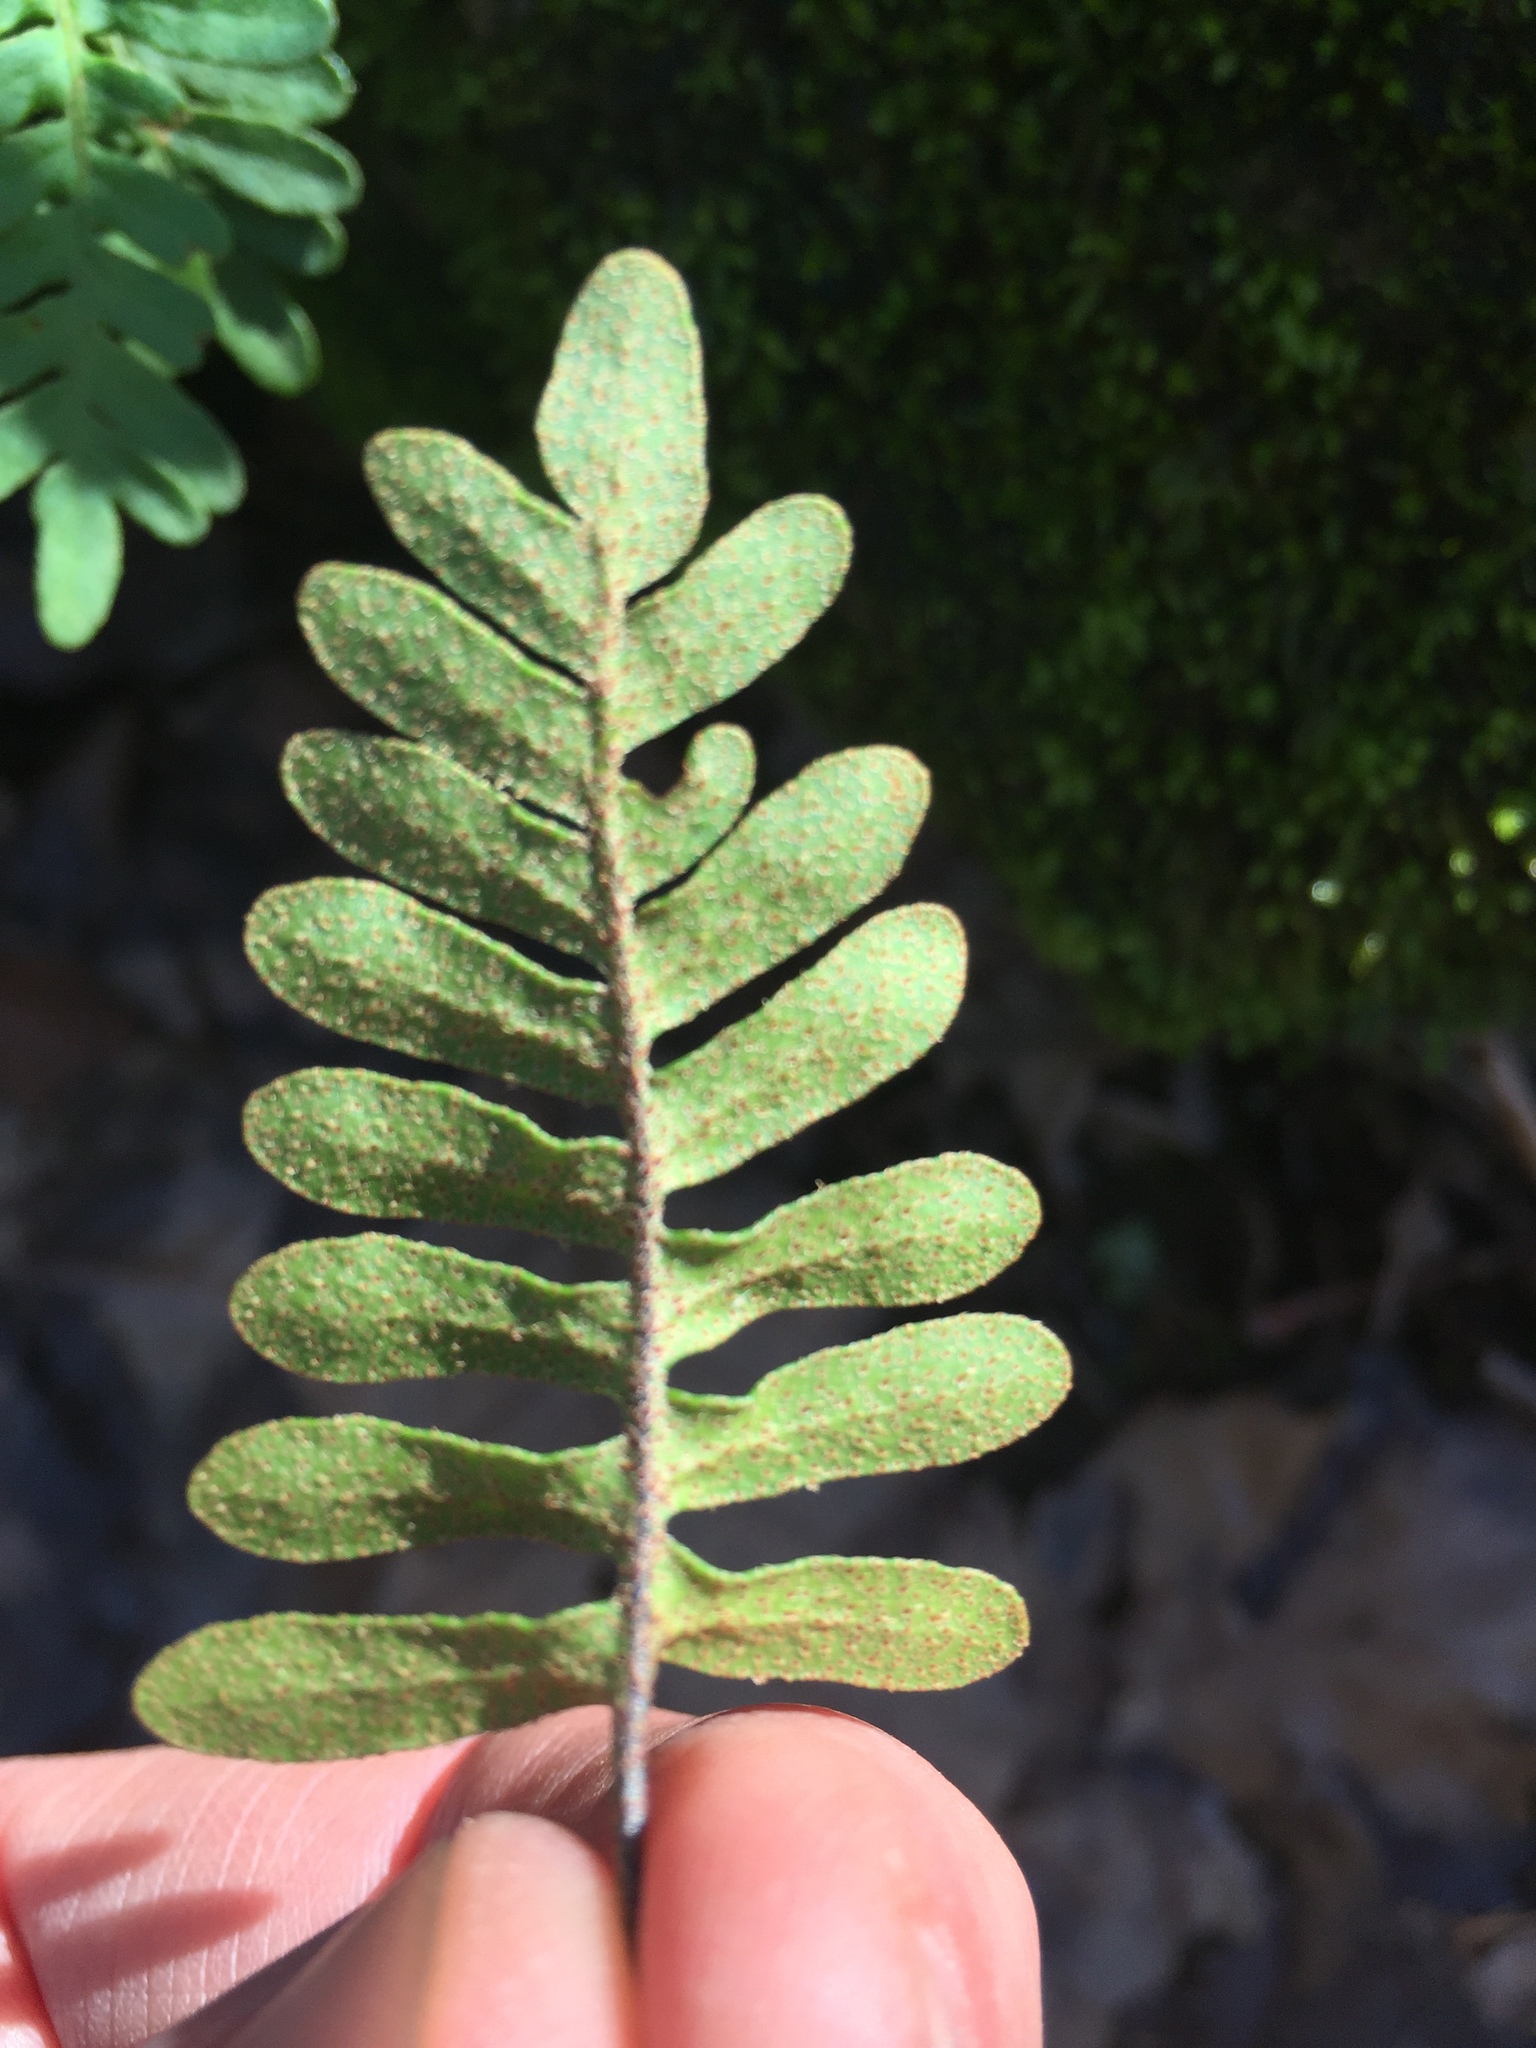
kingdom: Plantae
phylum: Tracheophyta
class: Polypodiopsida
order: Polypodiales
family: Polypodiaceae
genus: Pleopeltis
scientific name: Pleopeltis michauxiana
